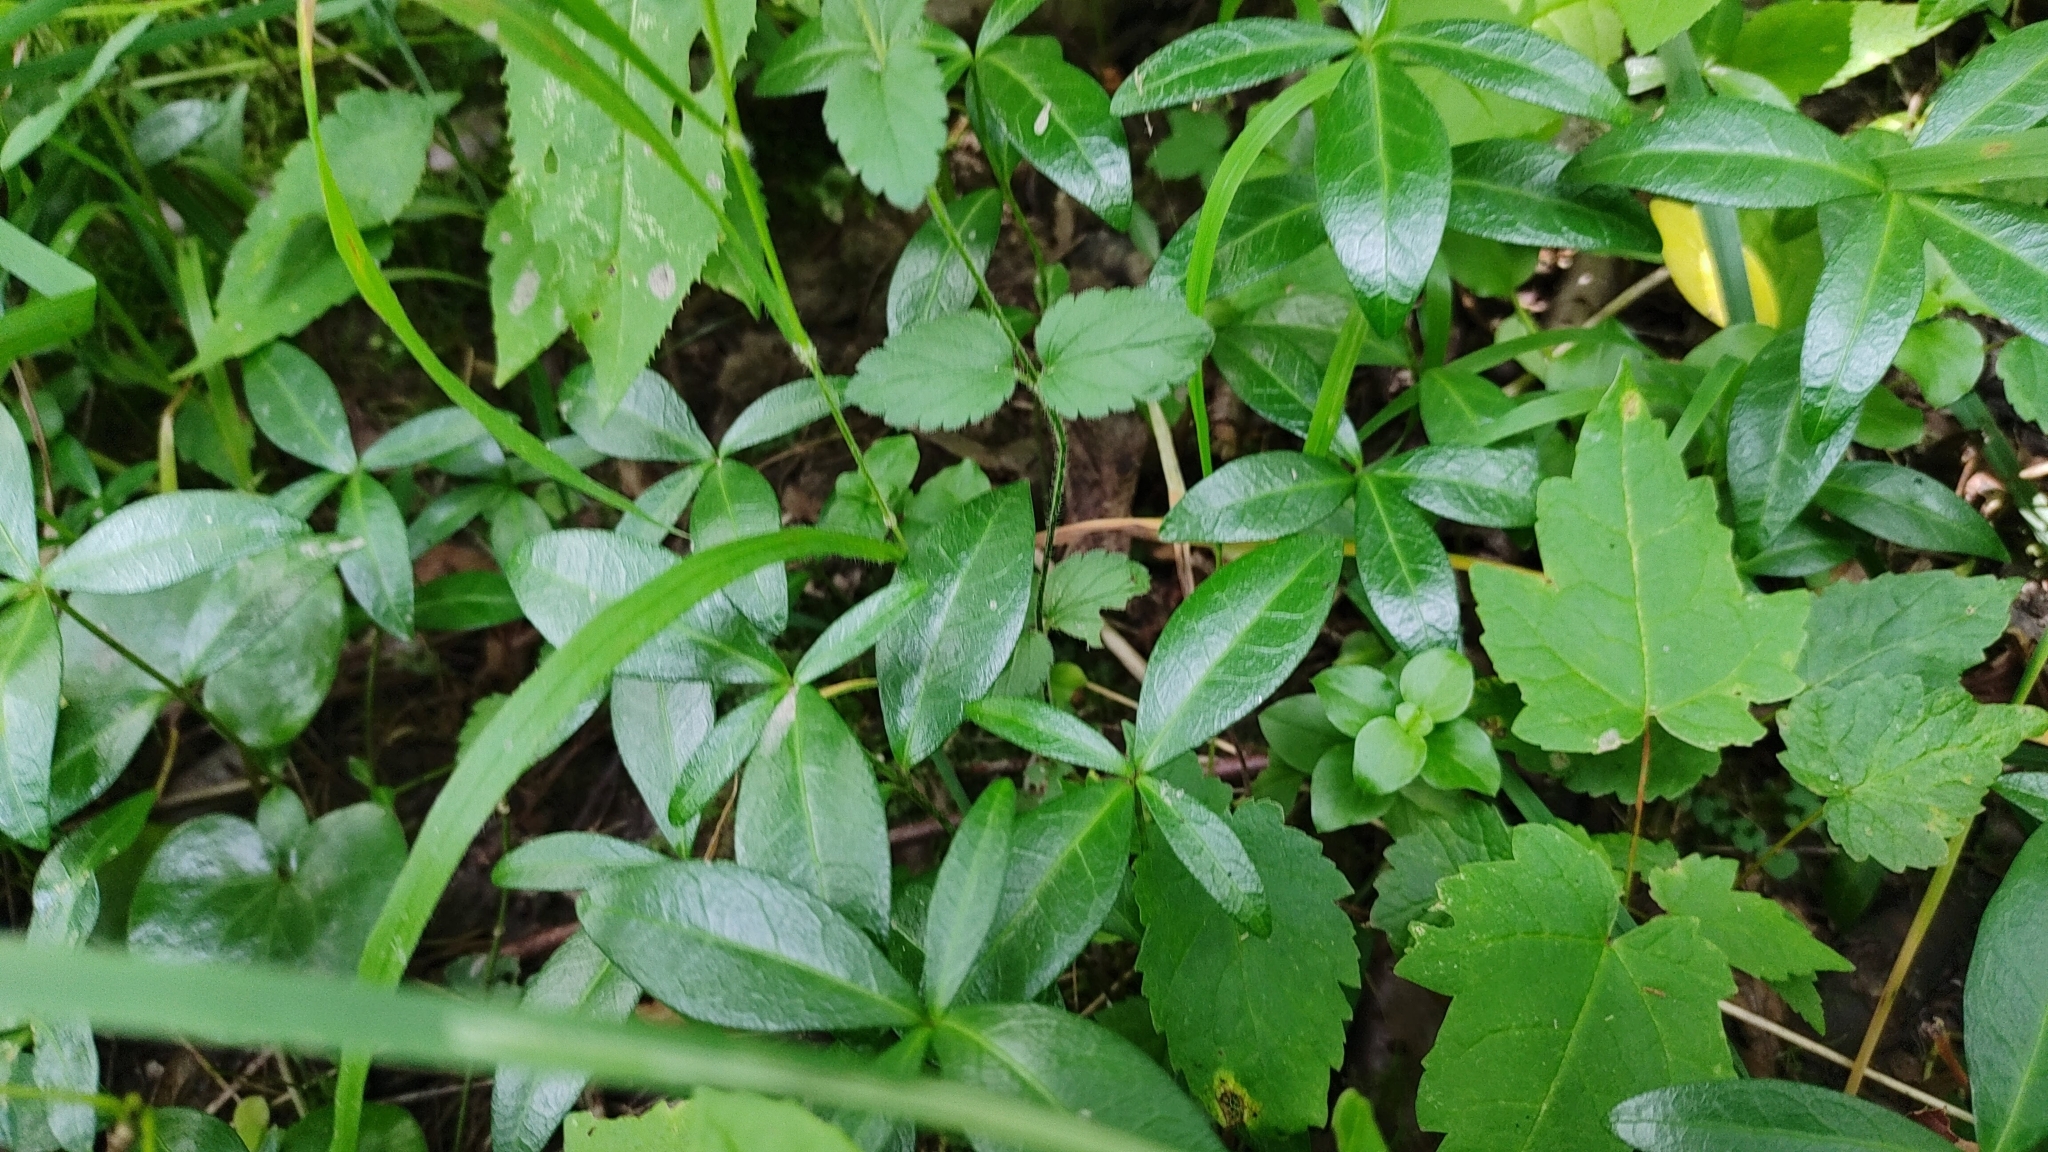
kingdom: Plantae
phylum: Tracheophyta
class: Magnoliopsida
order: Gentianales
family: Apocynaceae
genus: Vinca
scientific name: Vinca minor
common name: Lesser periwinkle
